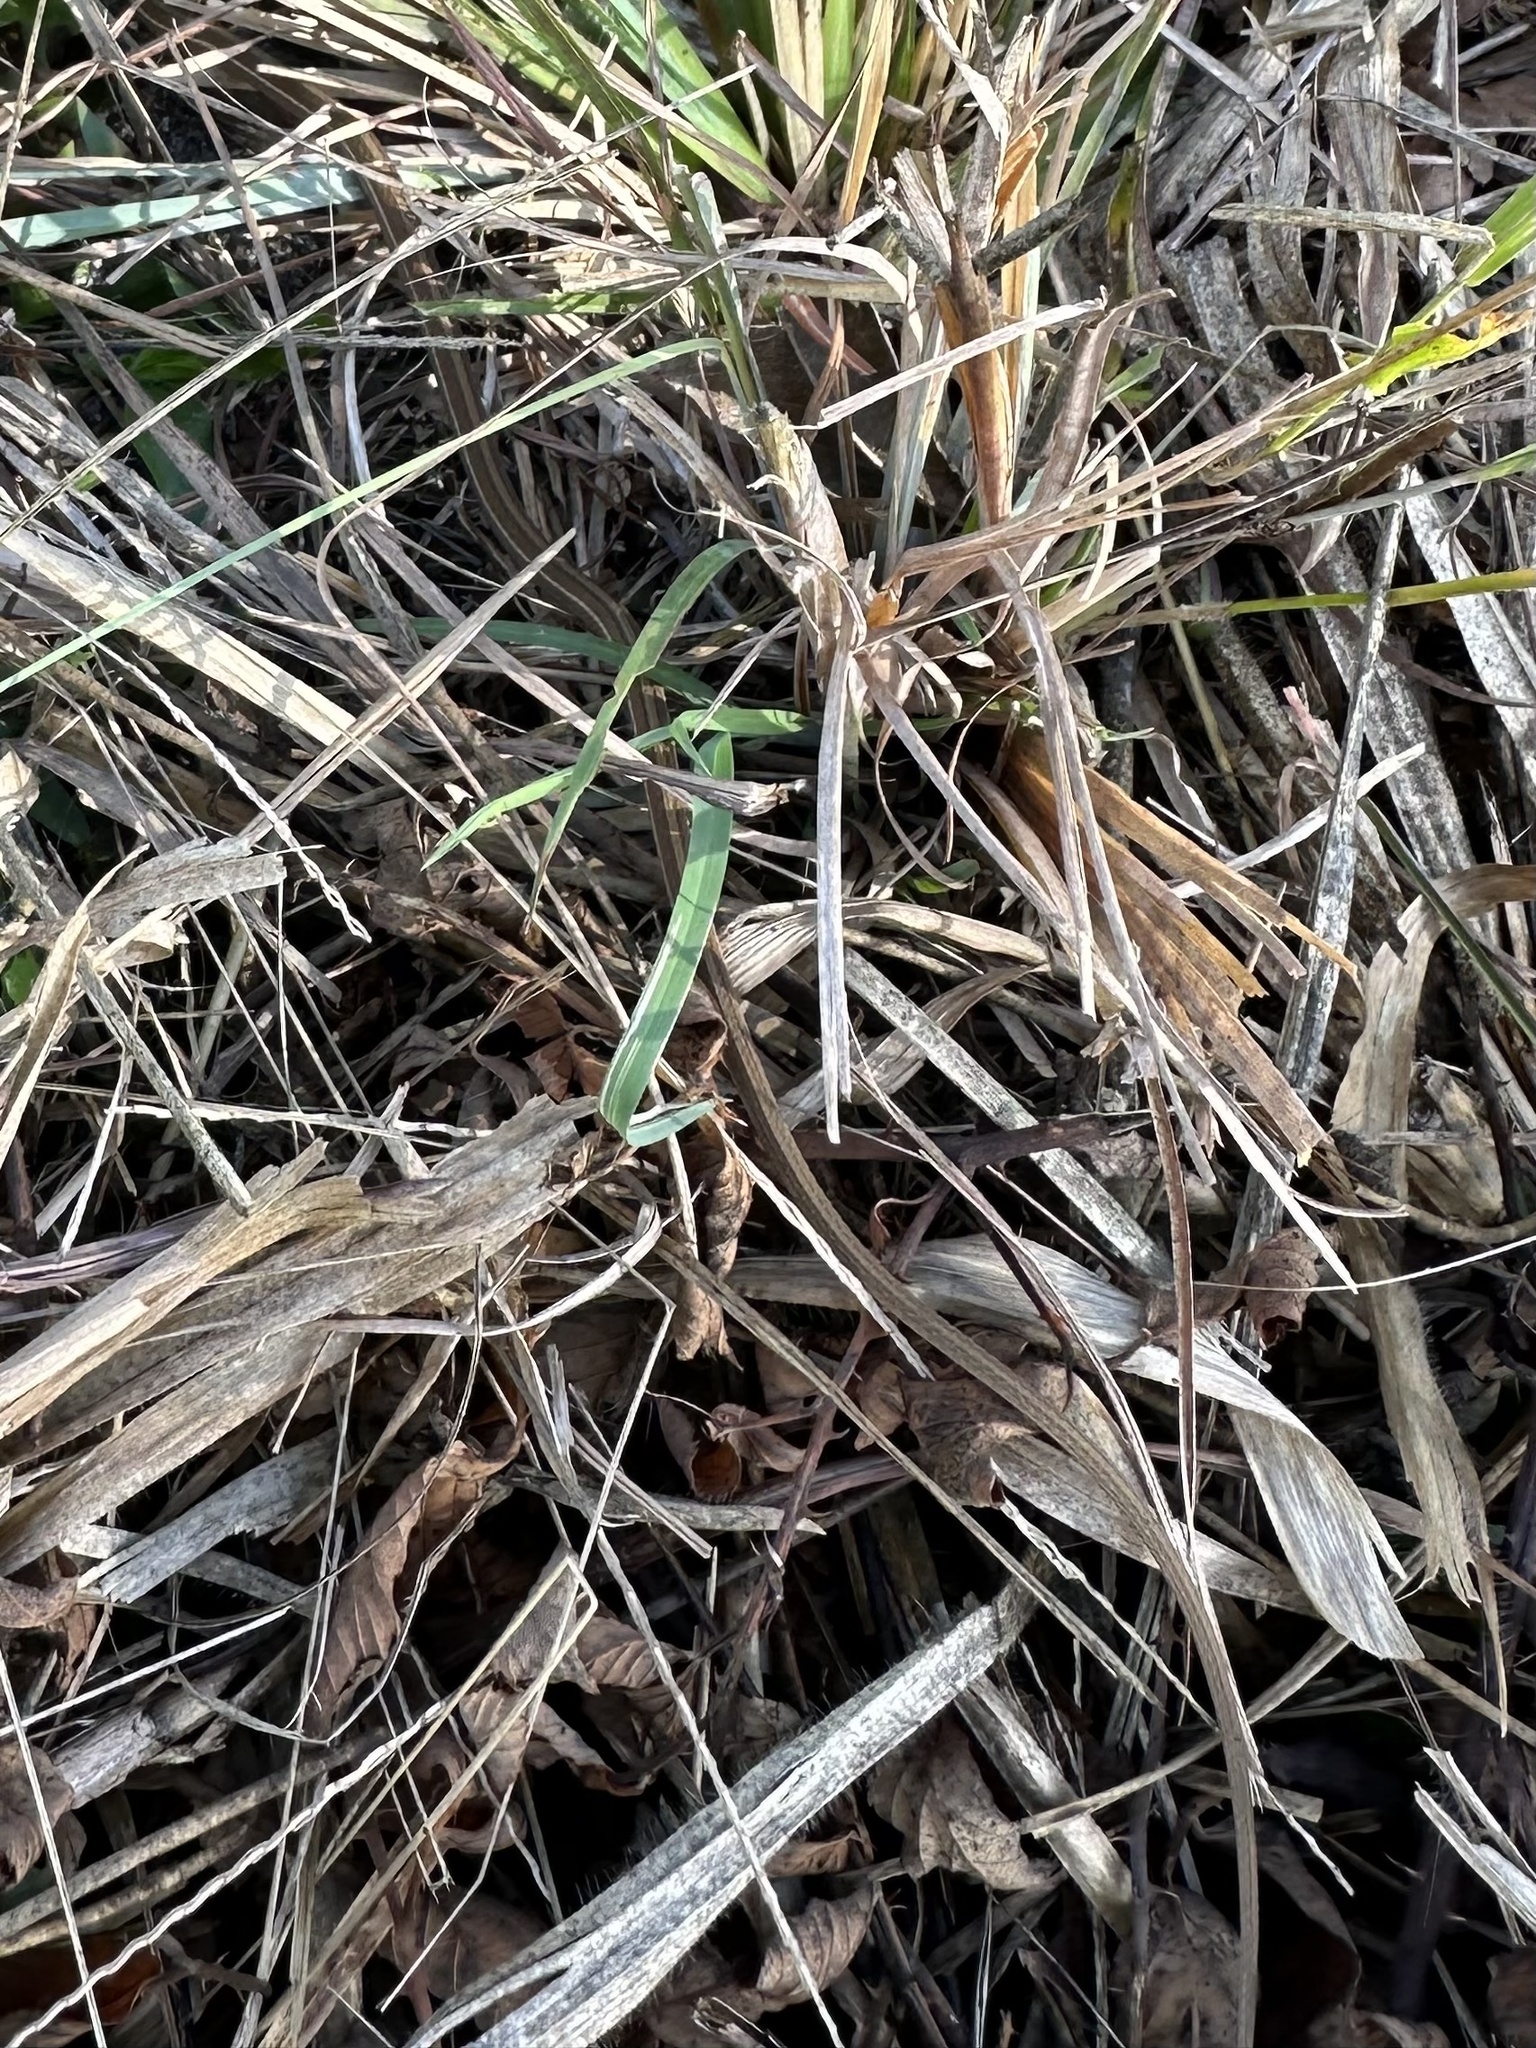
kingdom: Animalia
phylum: Chordata
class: Squamata
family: Colubridae
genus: Thamnophis
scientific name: Thamnophis saurita
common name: Eastern ribbonsnake
